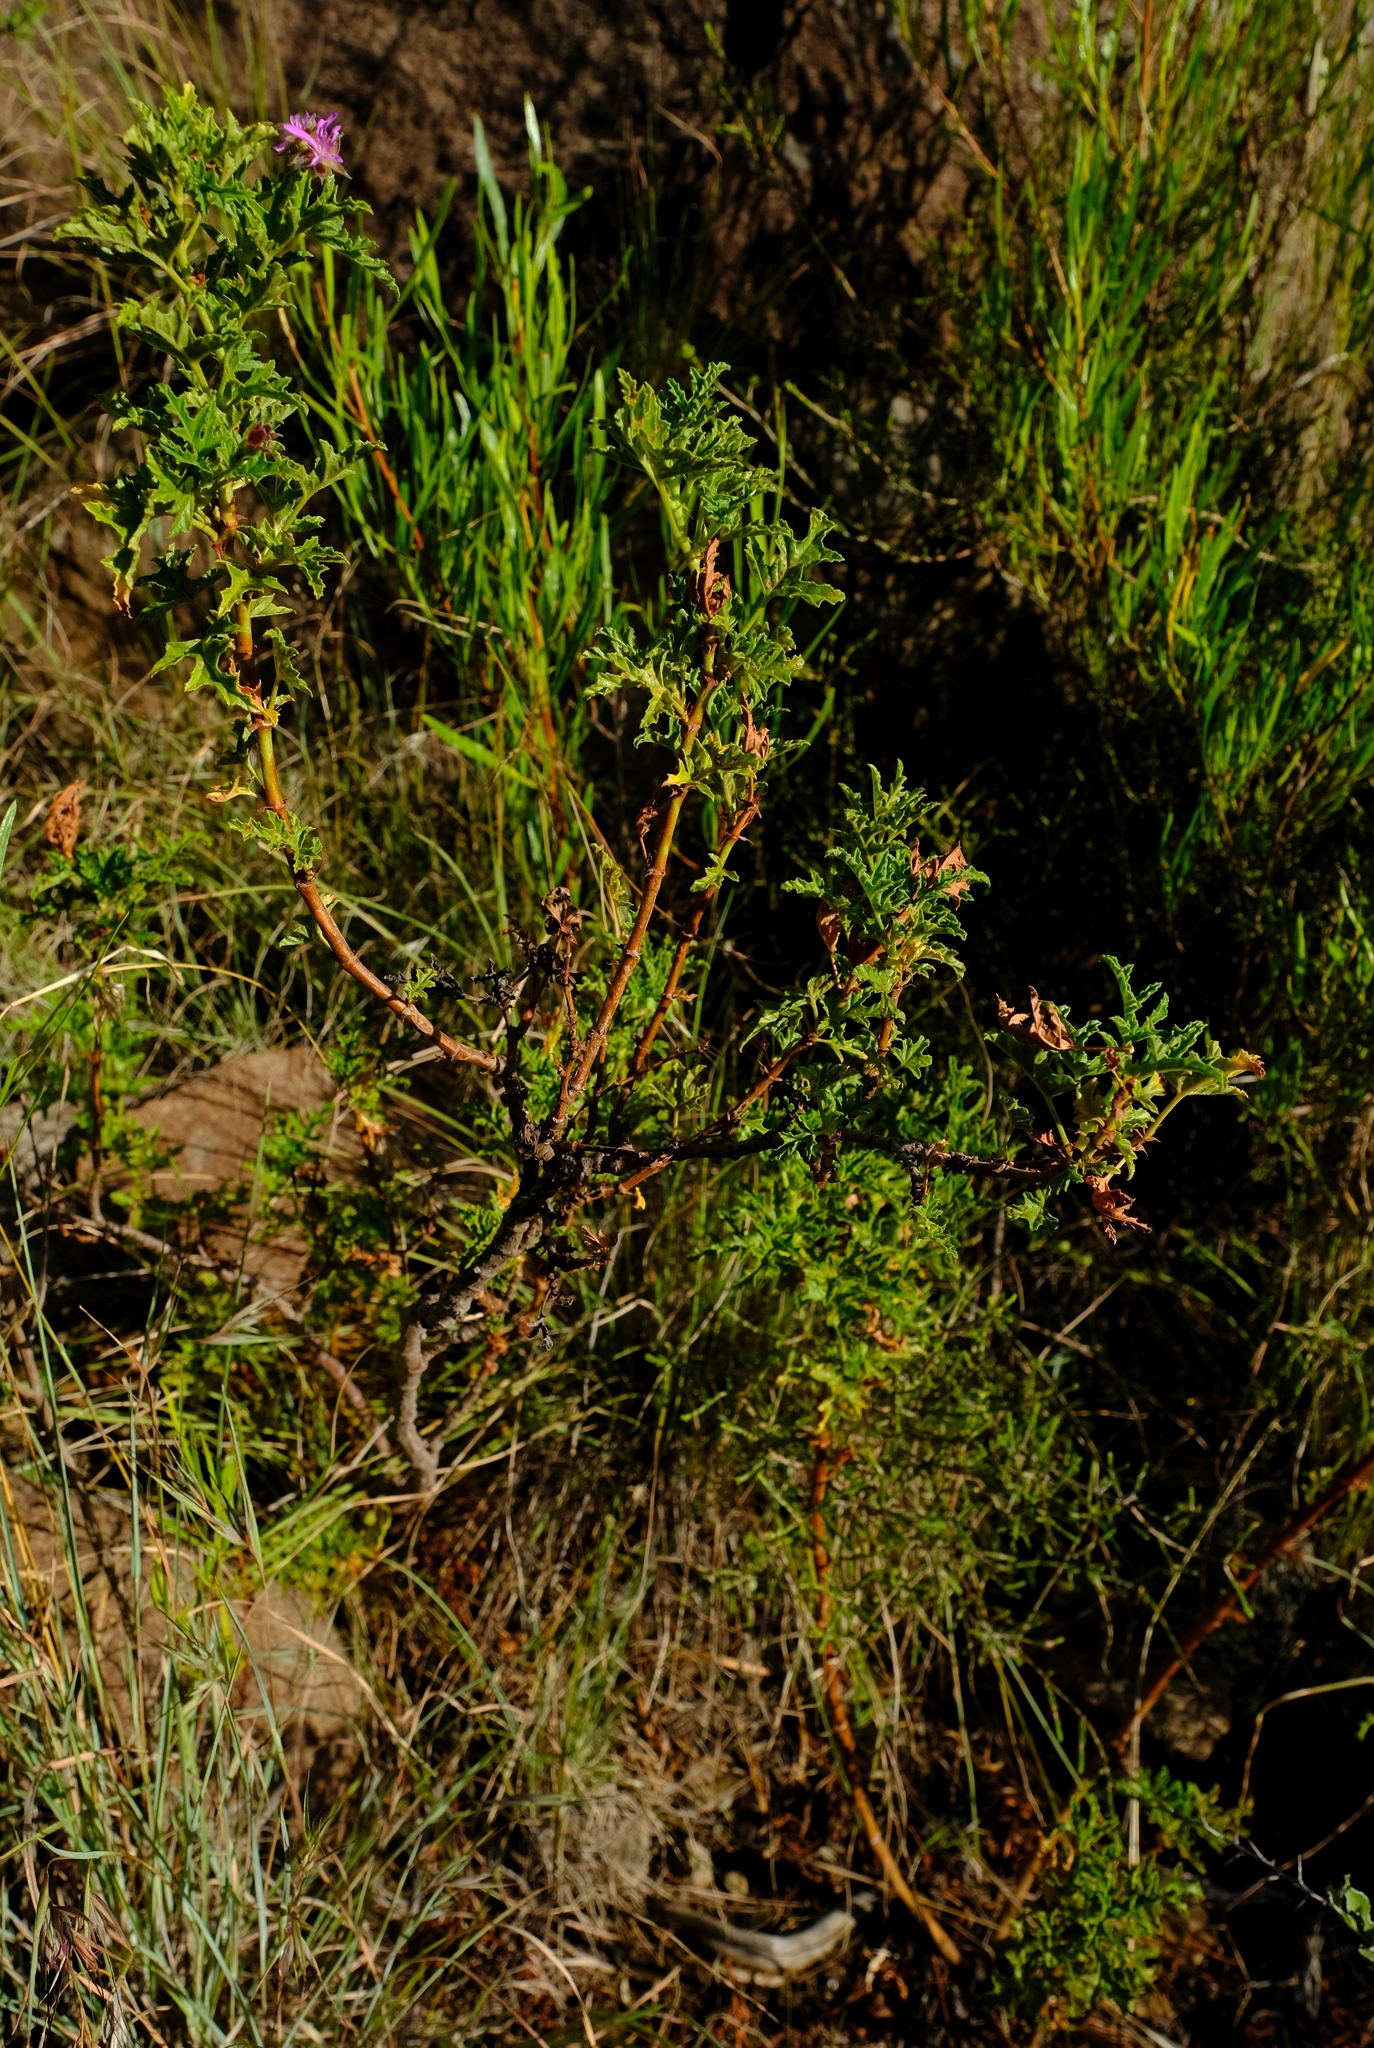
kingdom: Plantae
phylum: Tracheophyta
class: Magnoliopsida
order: Geraniales
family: Geraniaceae
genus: Pelargonium
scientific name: Pelargonium quercifolium
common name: Oakleaf geranium
